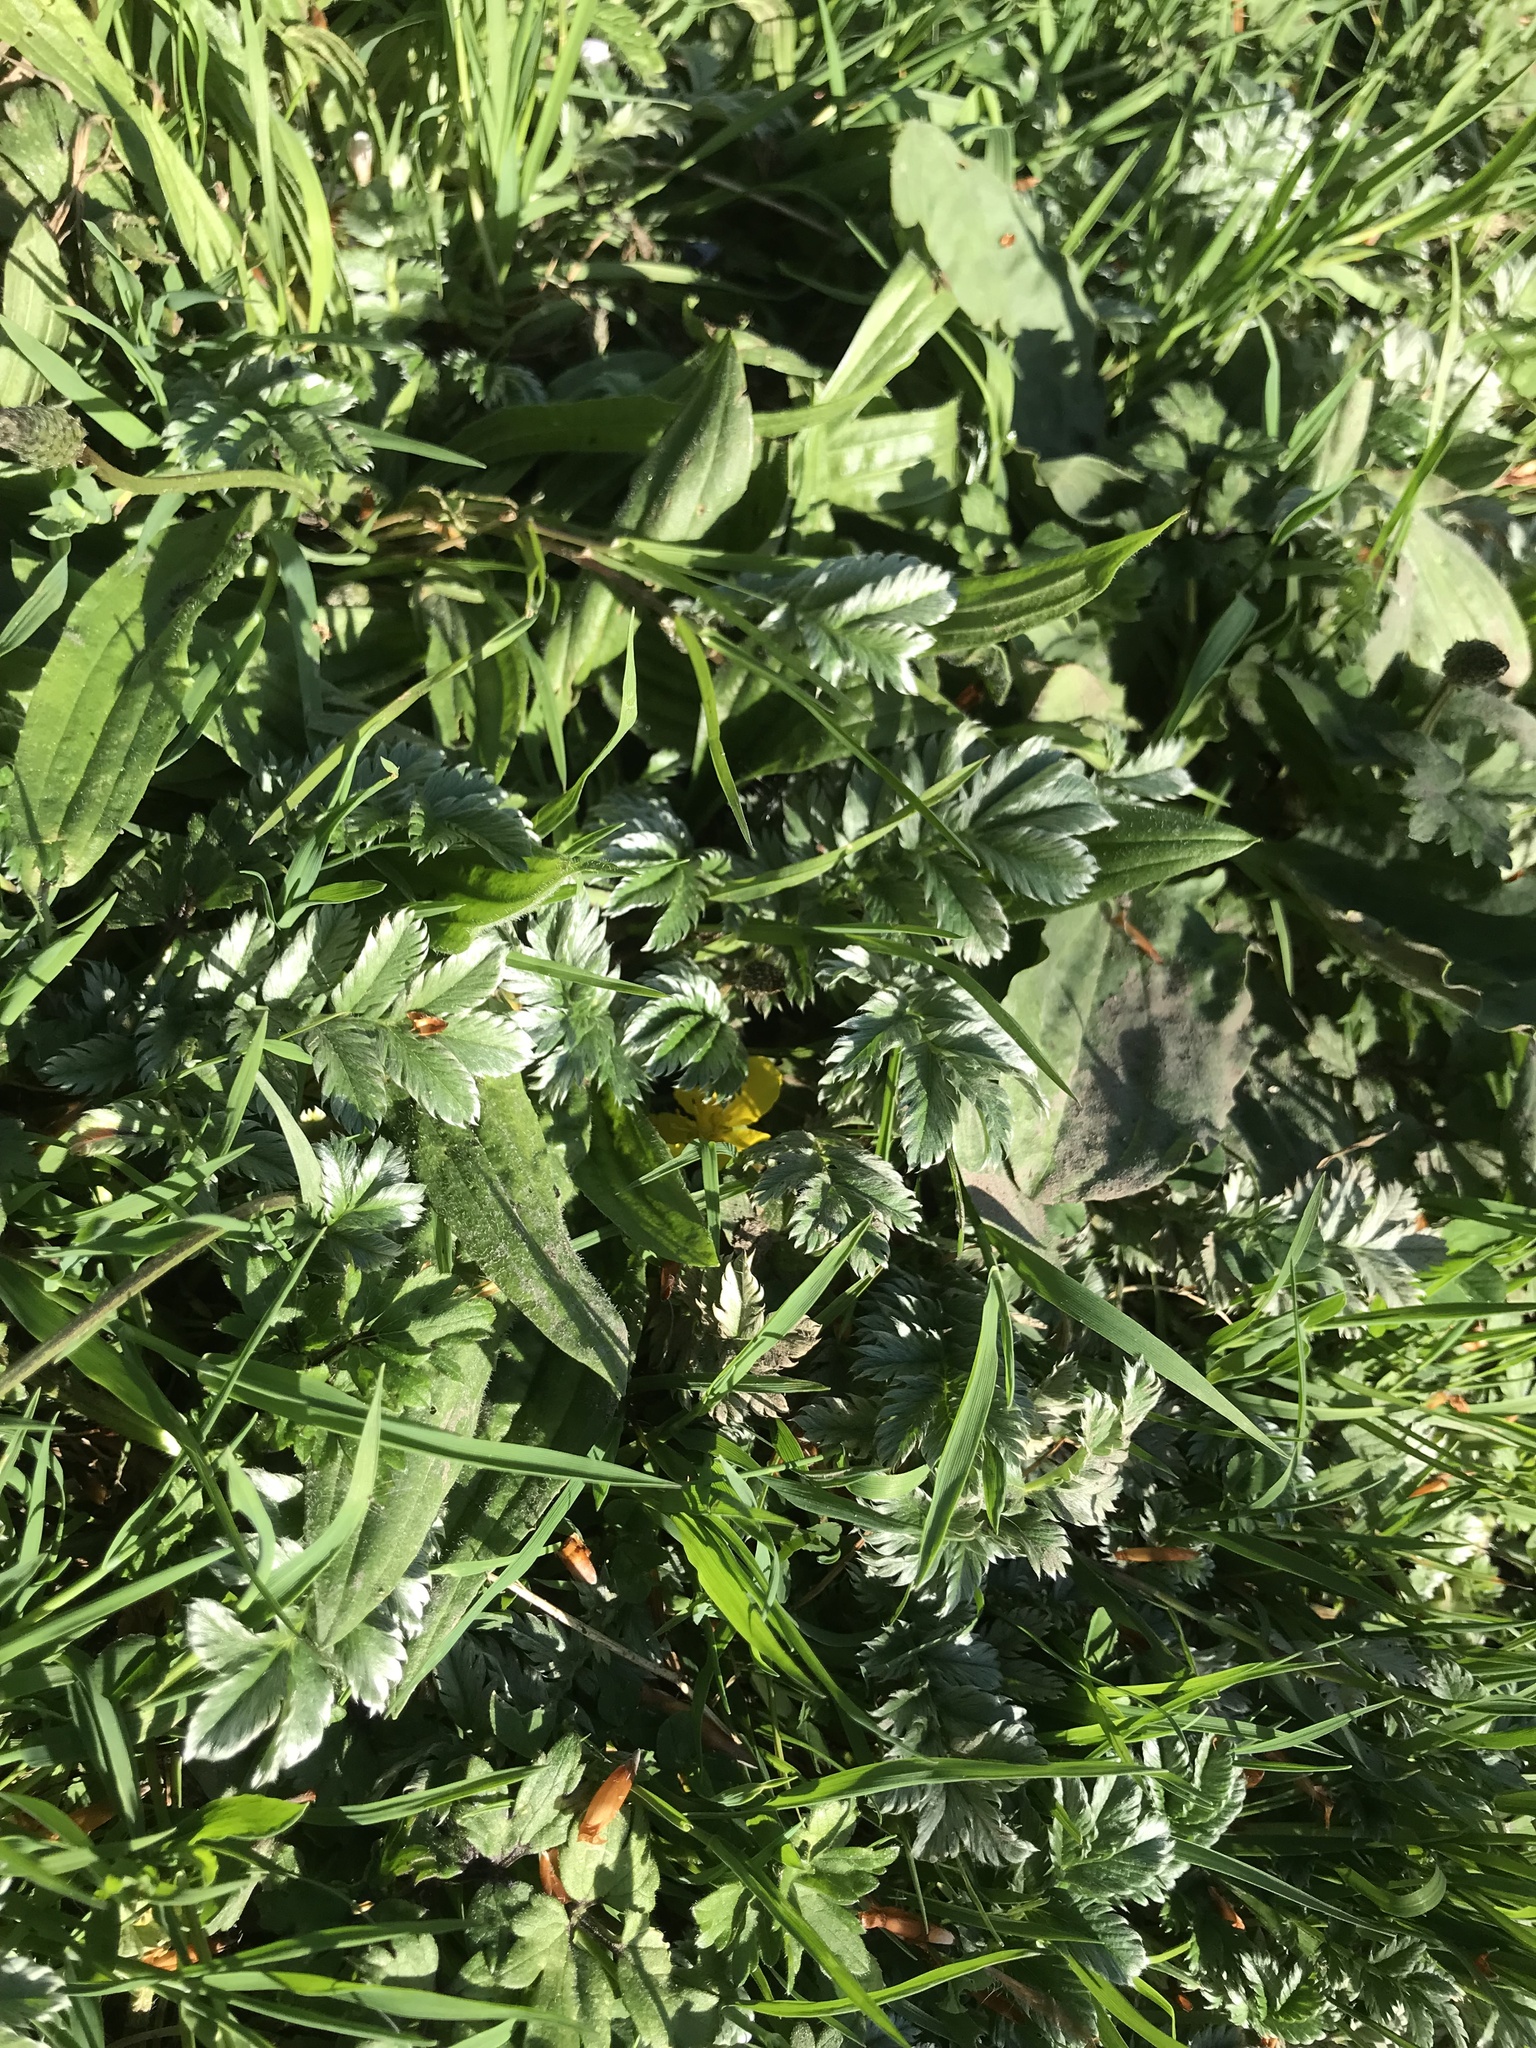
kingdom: Plantae
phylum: Tracheophyta
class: Magnoliopsida
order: Rosales
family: Rosaceae
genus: Argentina
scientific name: Argentina anserina
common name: Common silverweed
